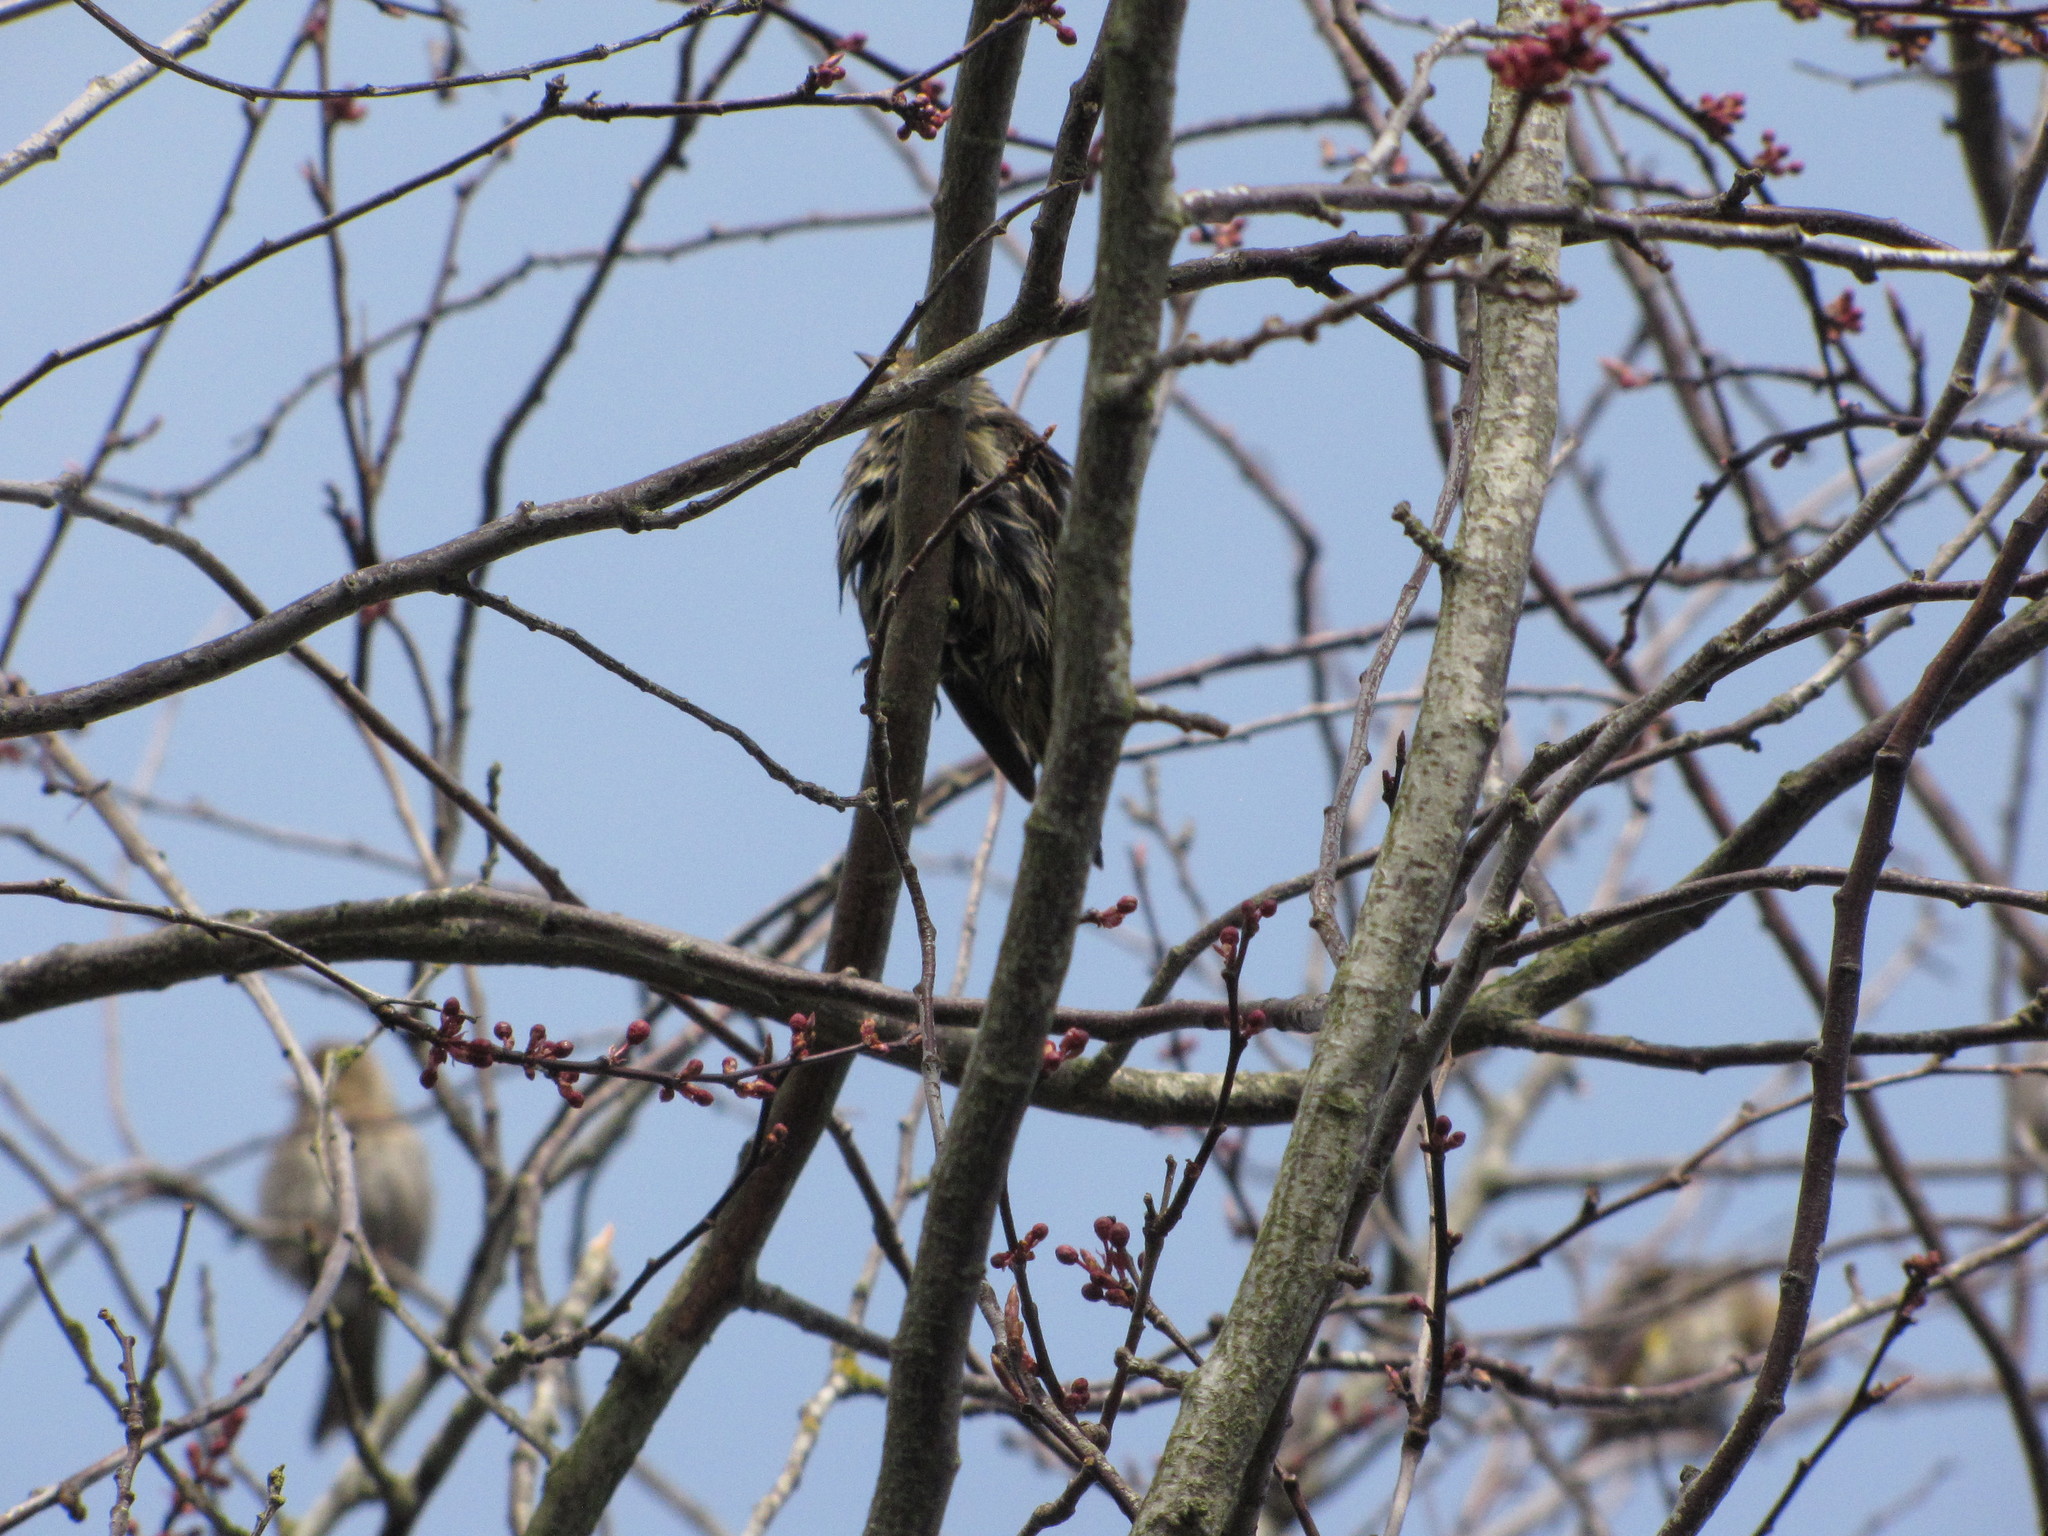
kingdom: Animalia
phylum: Chordata
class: Aves
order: Passeriformes
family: Fringillidae
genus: Spinus
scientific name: Spinus pinus
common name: Pine siskin
